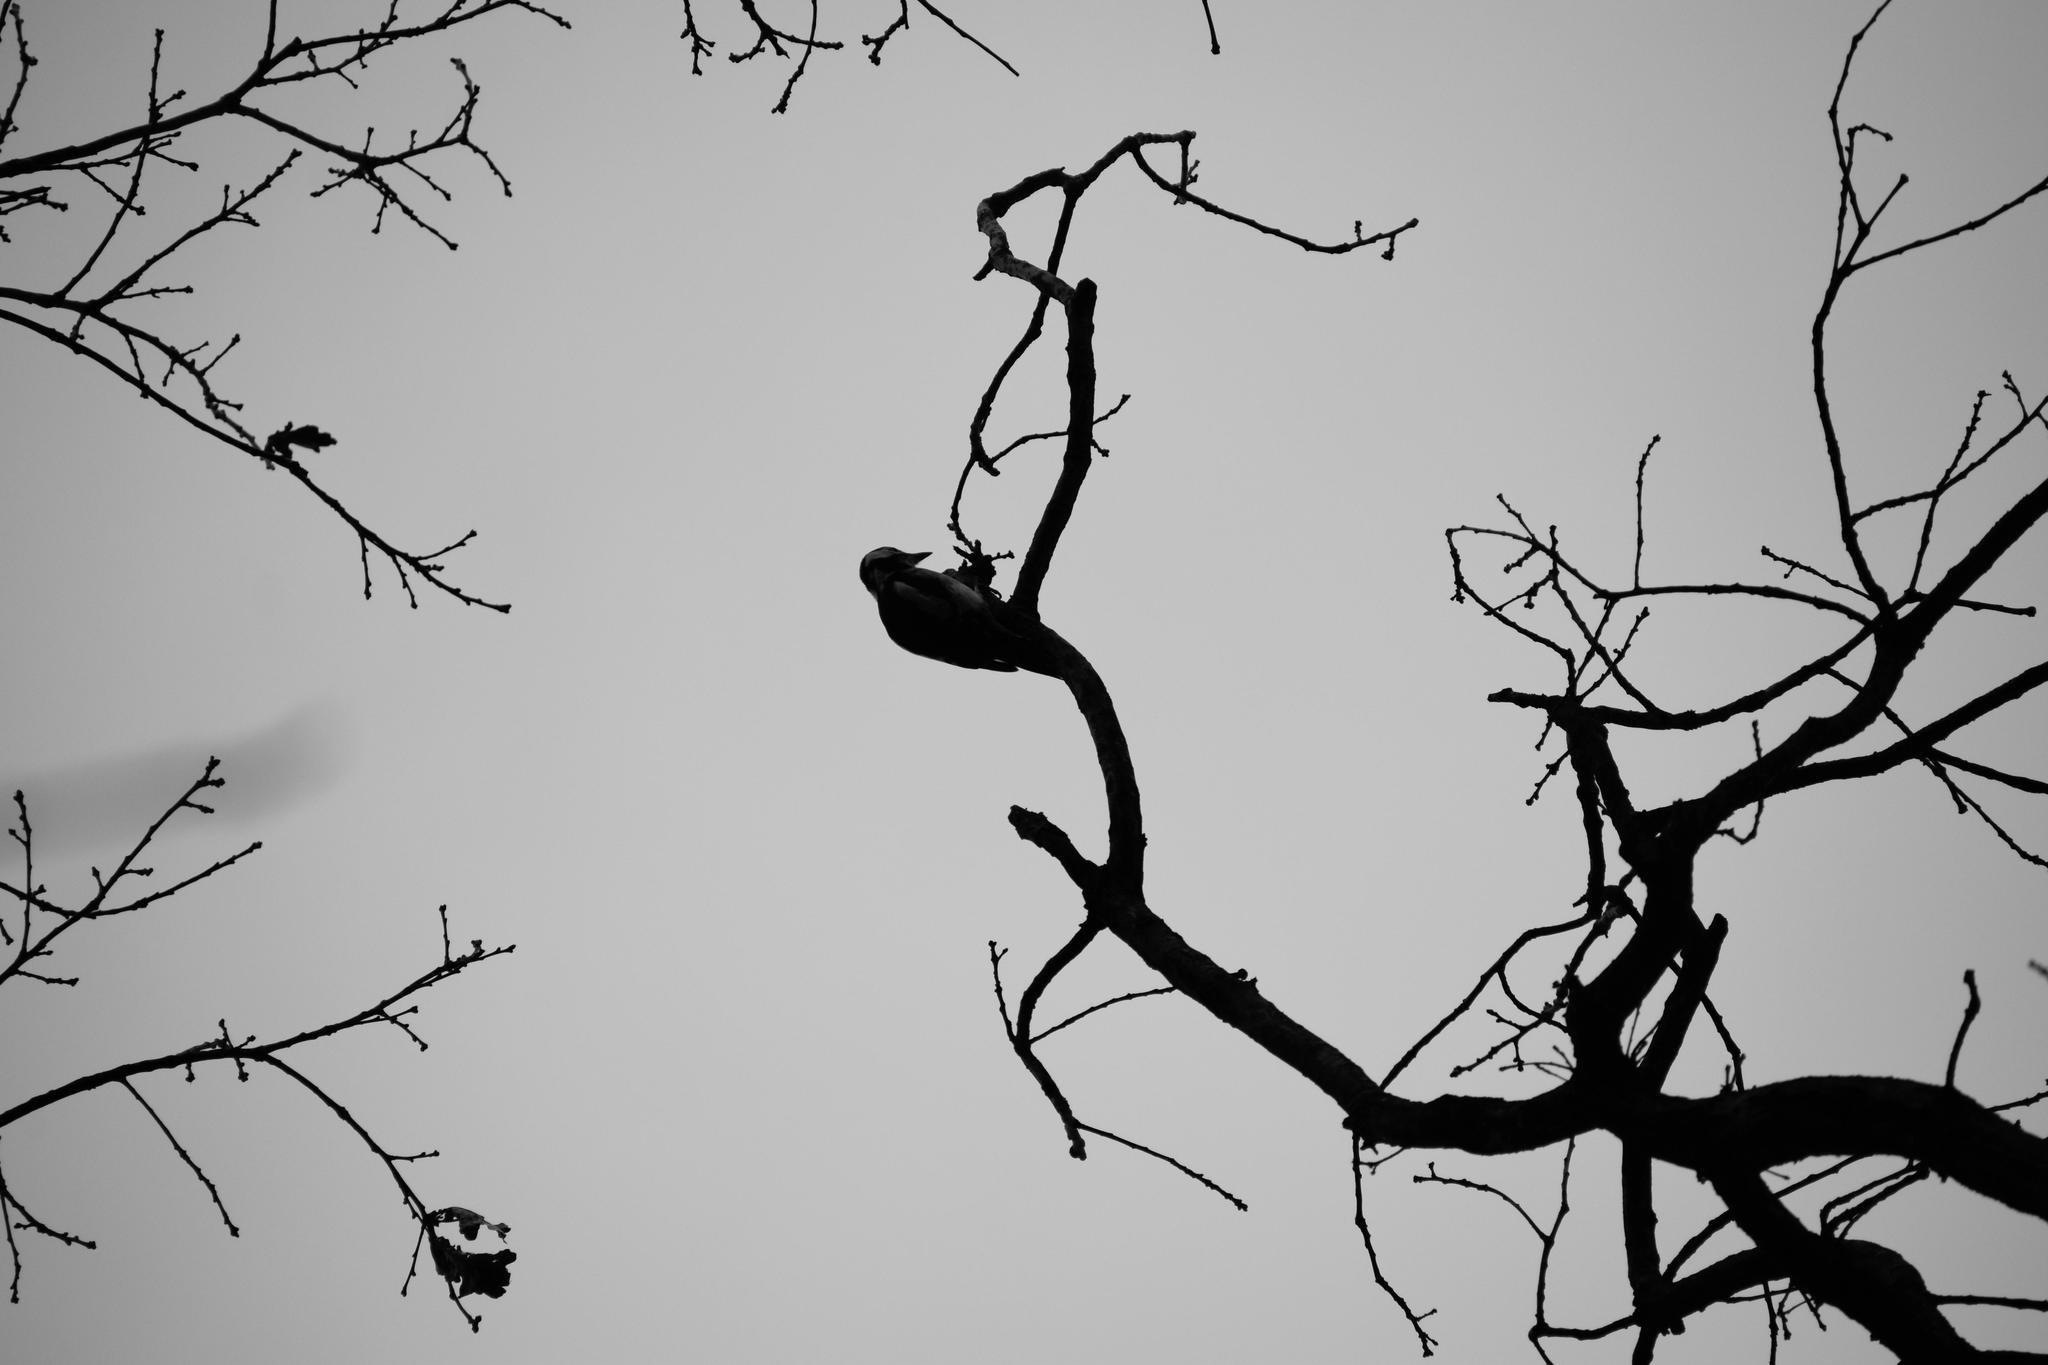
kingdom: Animalia
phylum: Chordata
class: Aves
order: Piciformes
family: Picidae
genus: Dendrocopos
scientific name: Dendrocopos major
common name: Great spotted woodpecker
